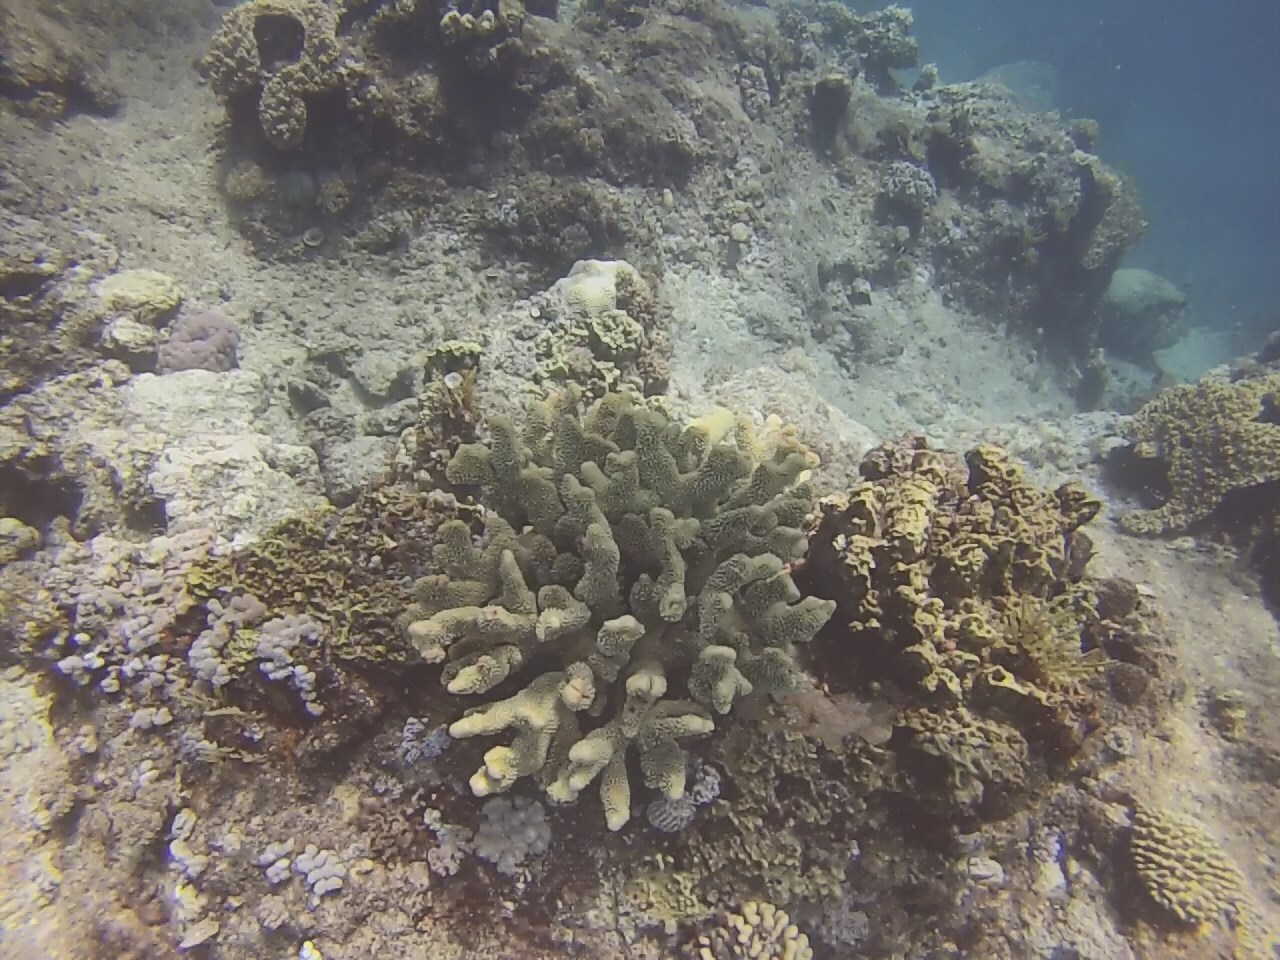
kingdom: Animalia
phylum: Cnidaria
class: Anthozoa
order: Scleractinia
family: Pocilloporidae
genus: Pocillopora
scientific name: Pocillopora grandis
